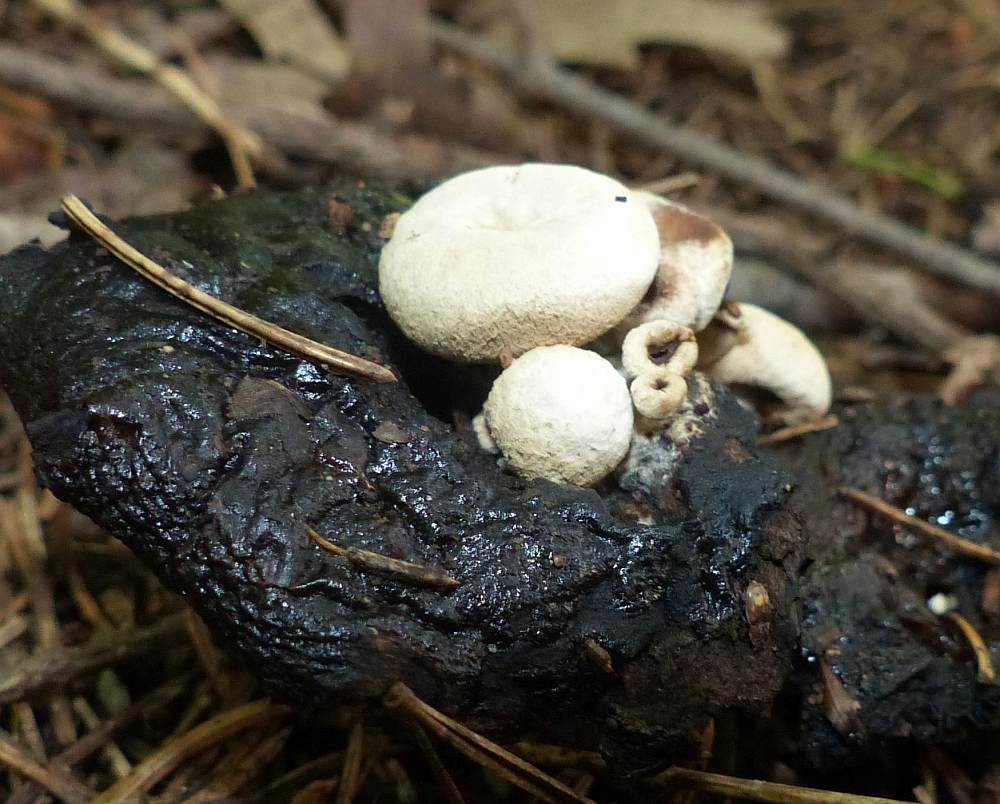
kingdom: Fungi
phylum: Basidiomycota
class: Agaricomycetes
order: Agaricales
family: Lyophyllaceae
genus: Asterophora
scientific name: Asterophora lycoperdoides
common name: Pick-a-back toadstool
